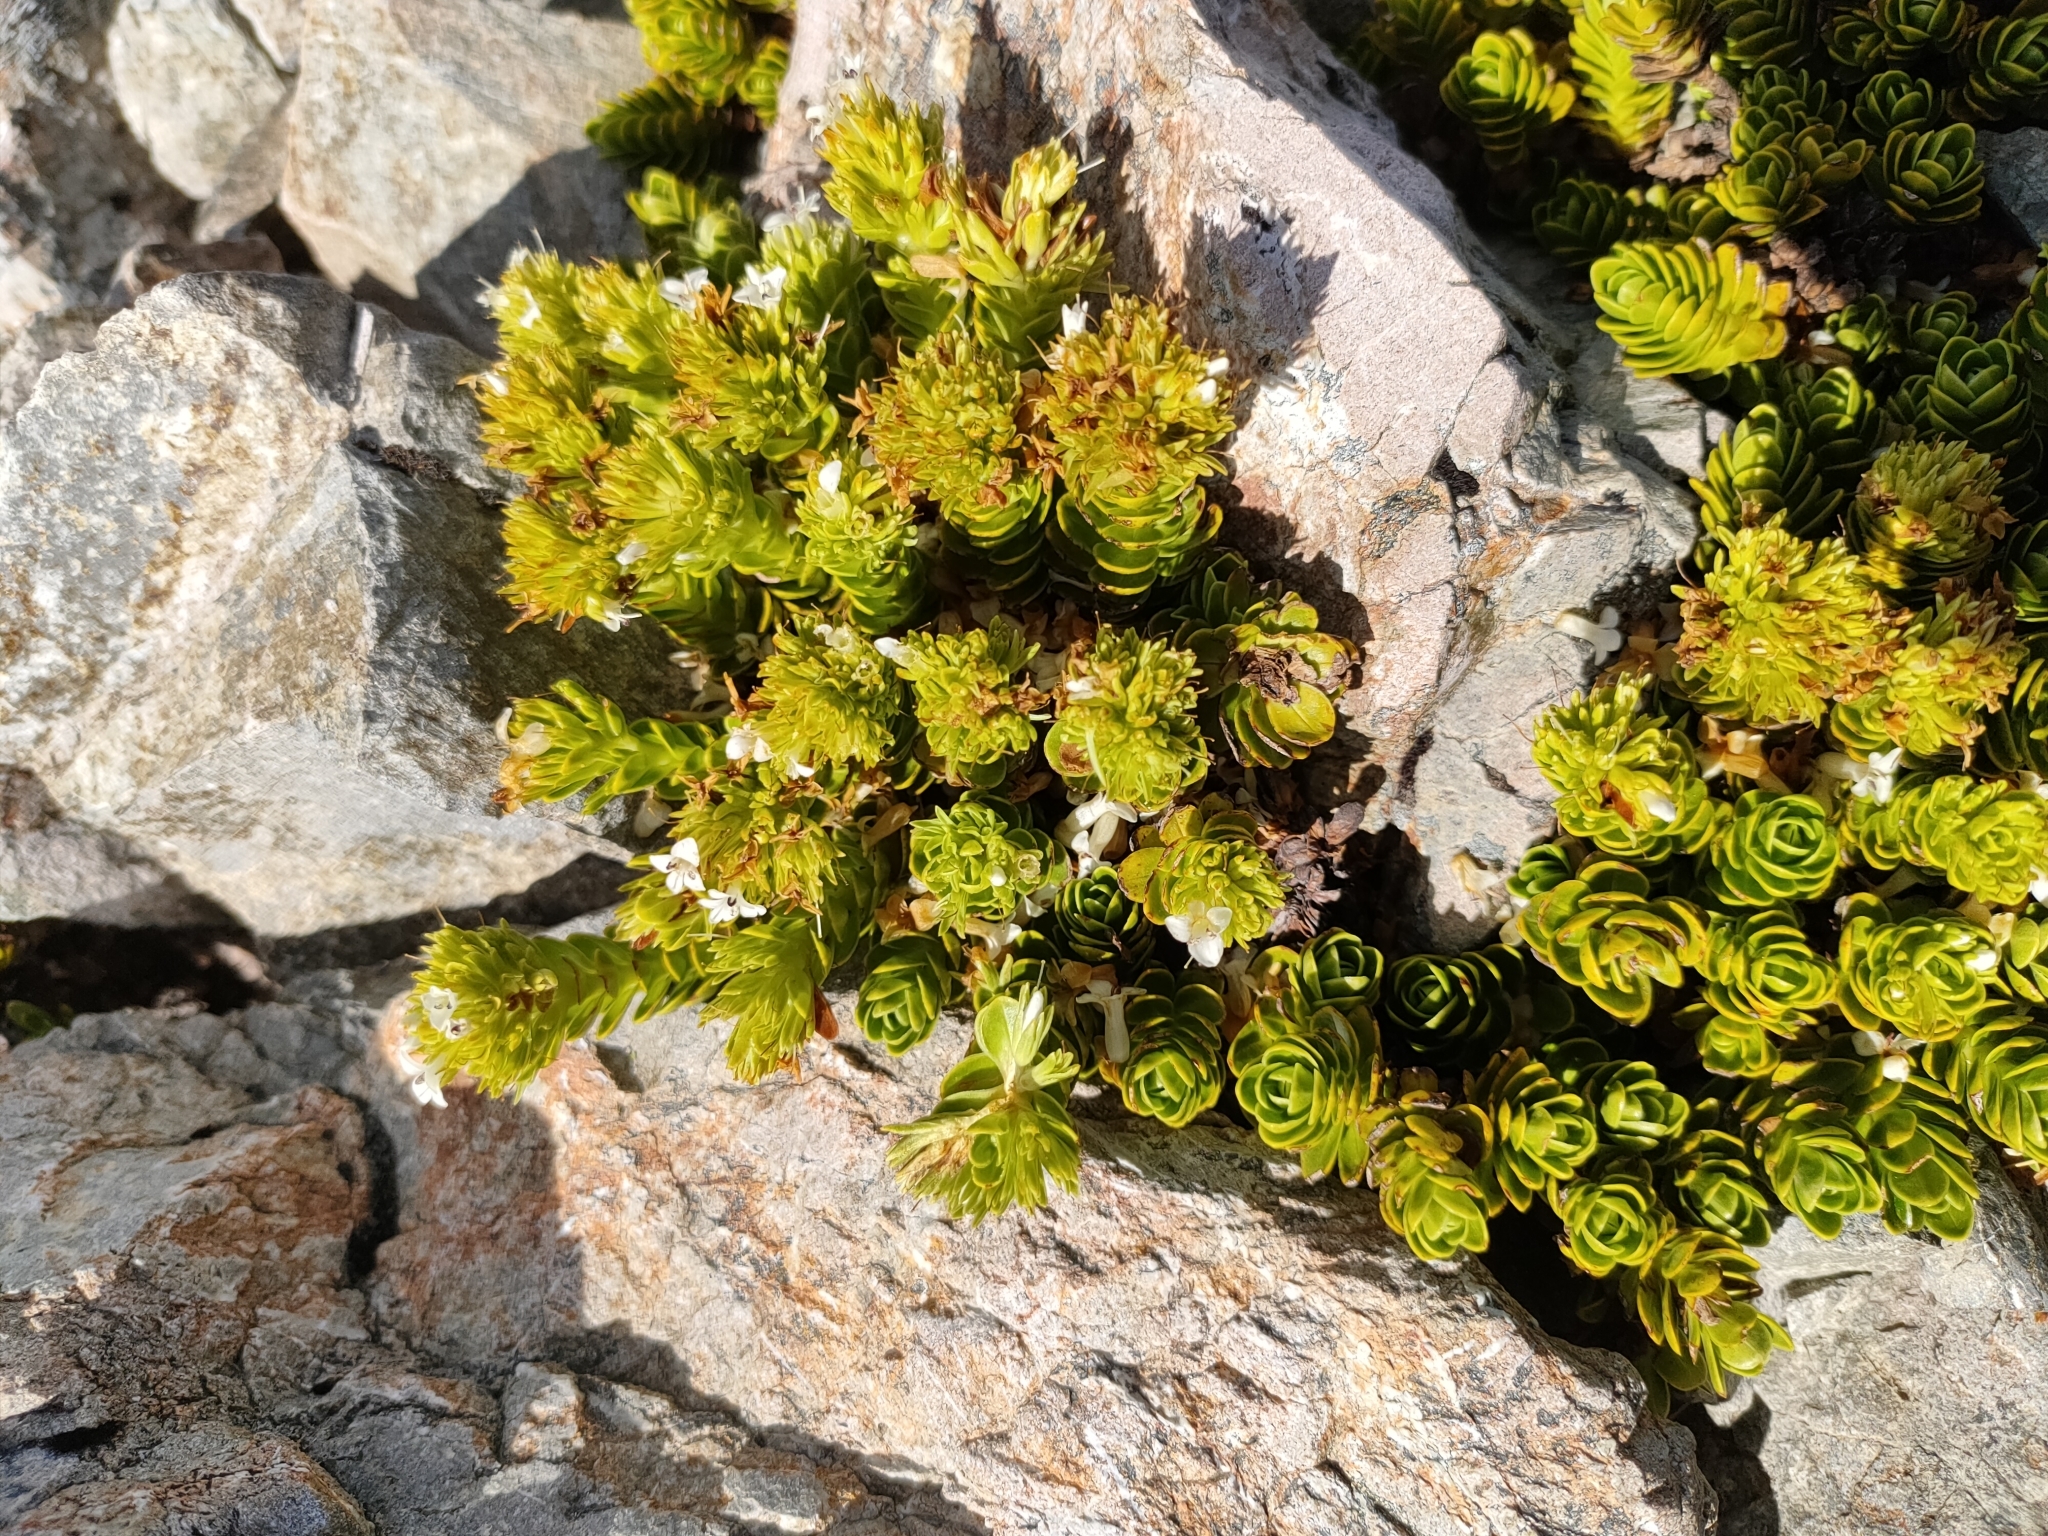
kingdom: Plantae
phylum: Tracheophyta
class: Magnoliopsida
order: Lamiales
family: Plantaginaceae
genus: Veronica
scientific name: Veronica macrocalyx
